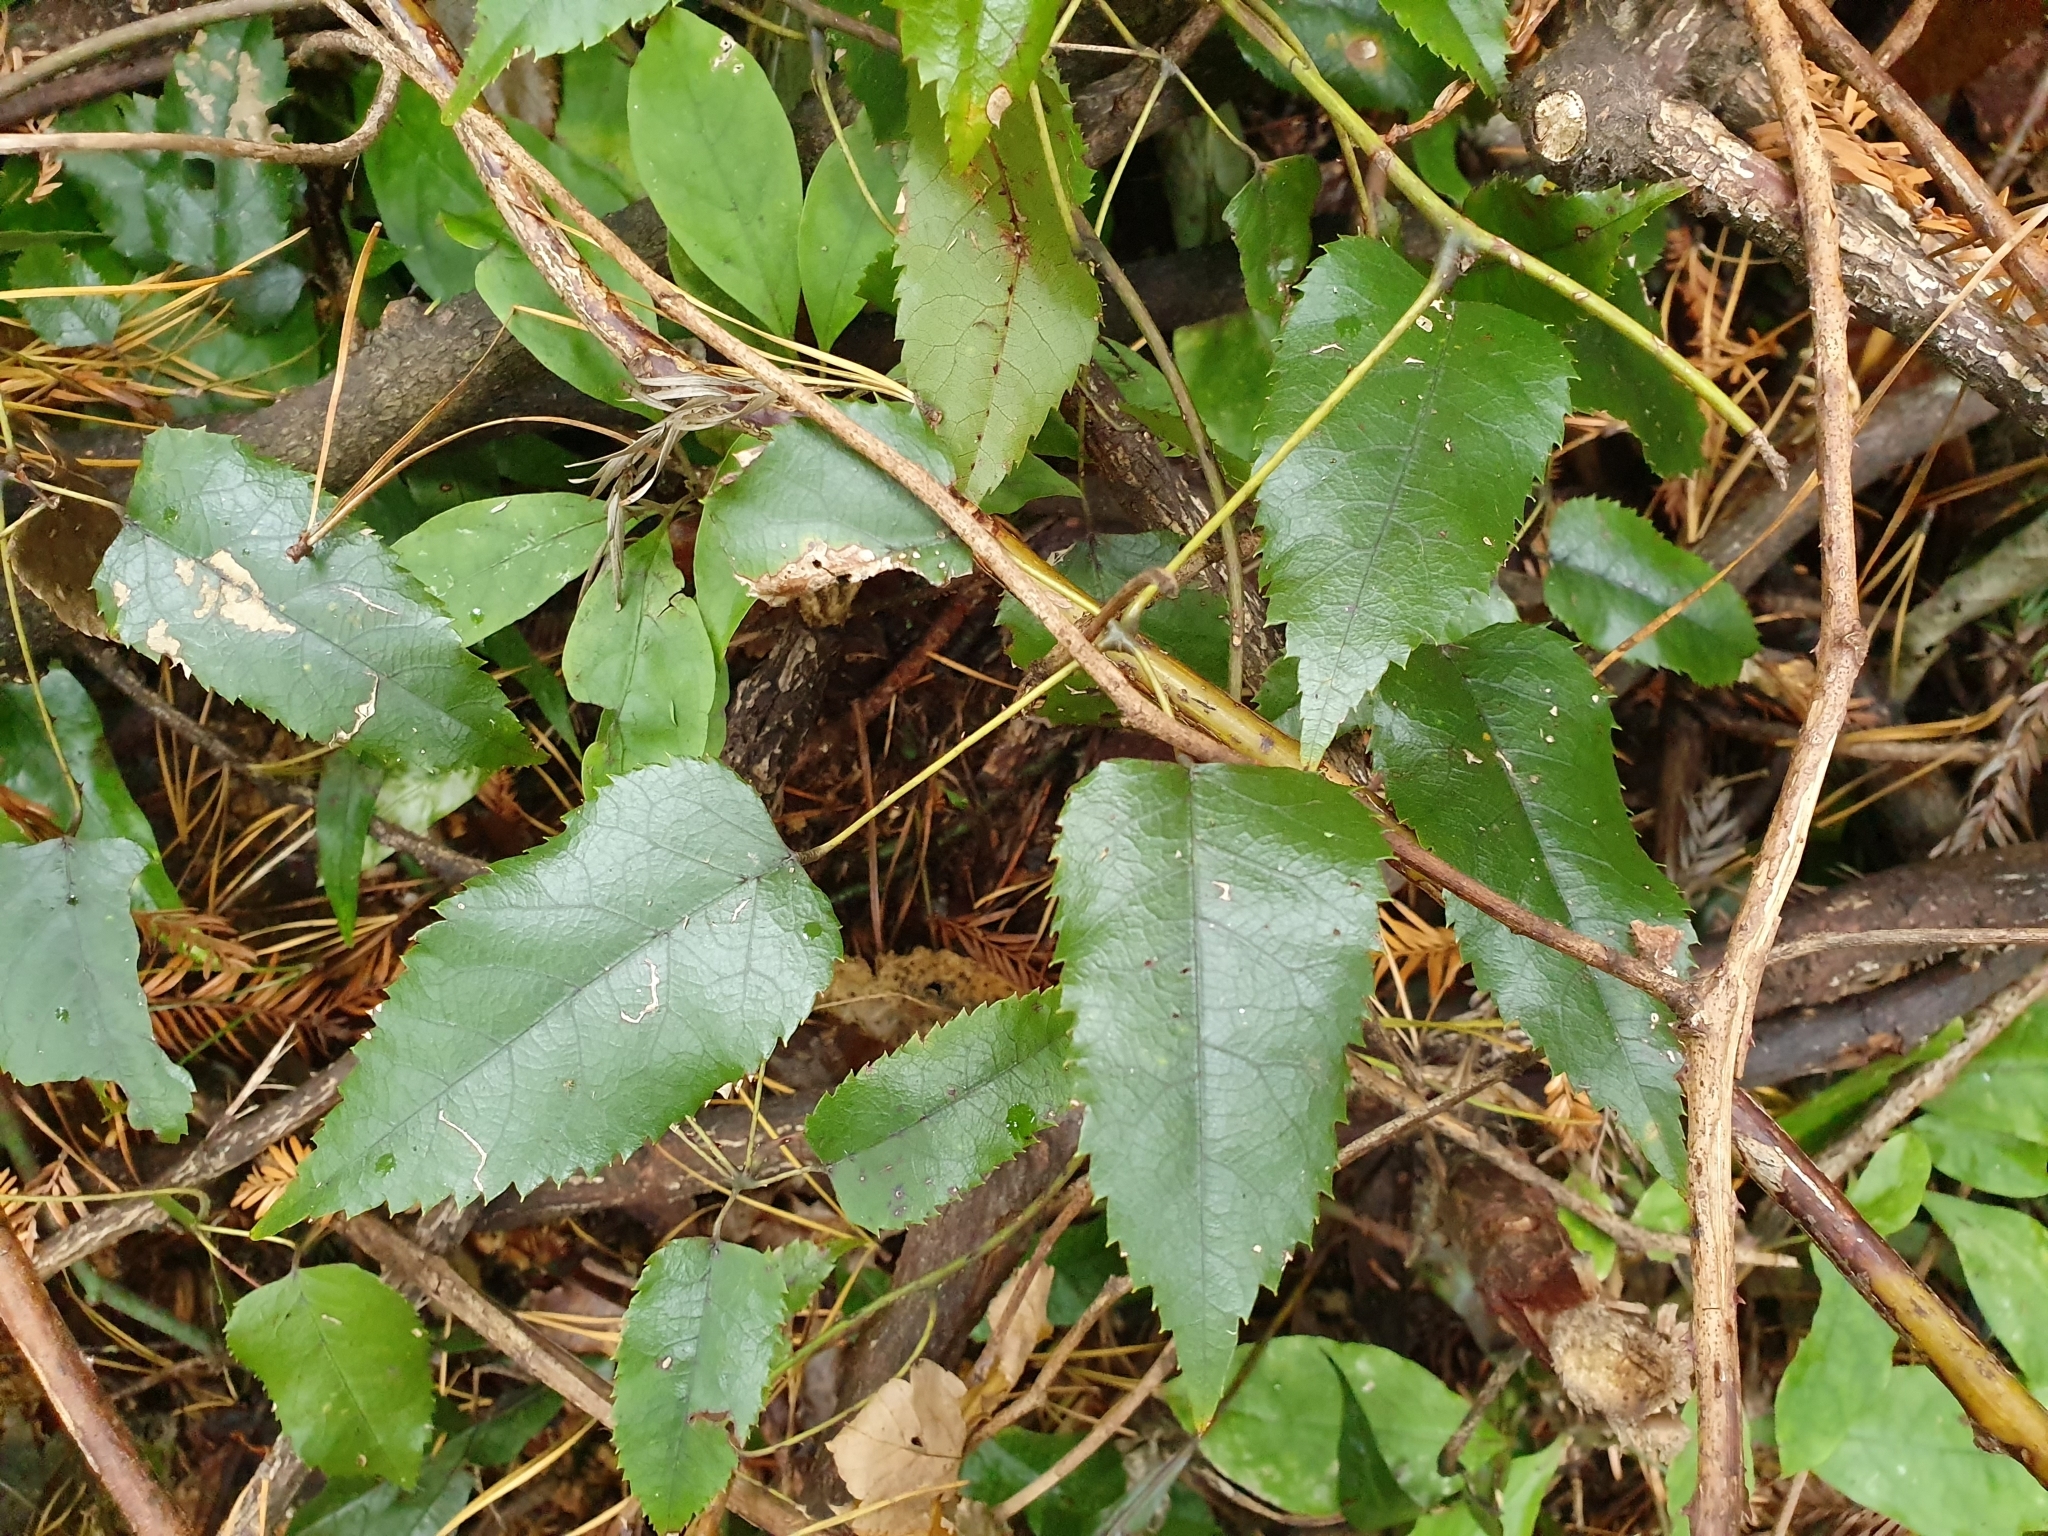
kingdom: Plantae
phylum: Tracheophyta
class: Magnoliopsida
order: Rosales
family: Rosaceae
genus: Rubus
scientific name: Rubus cissoides
